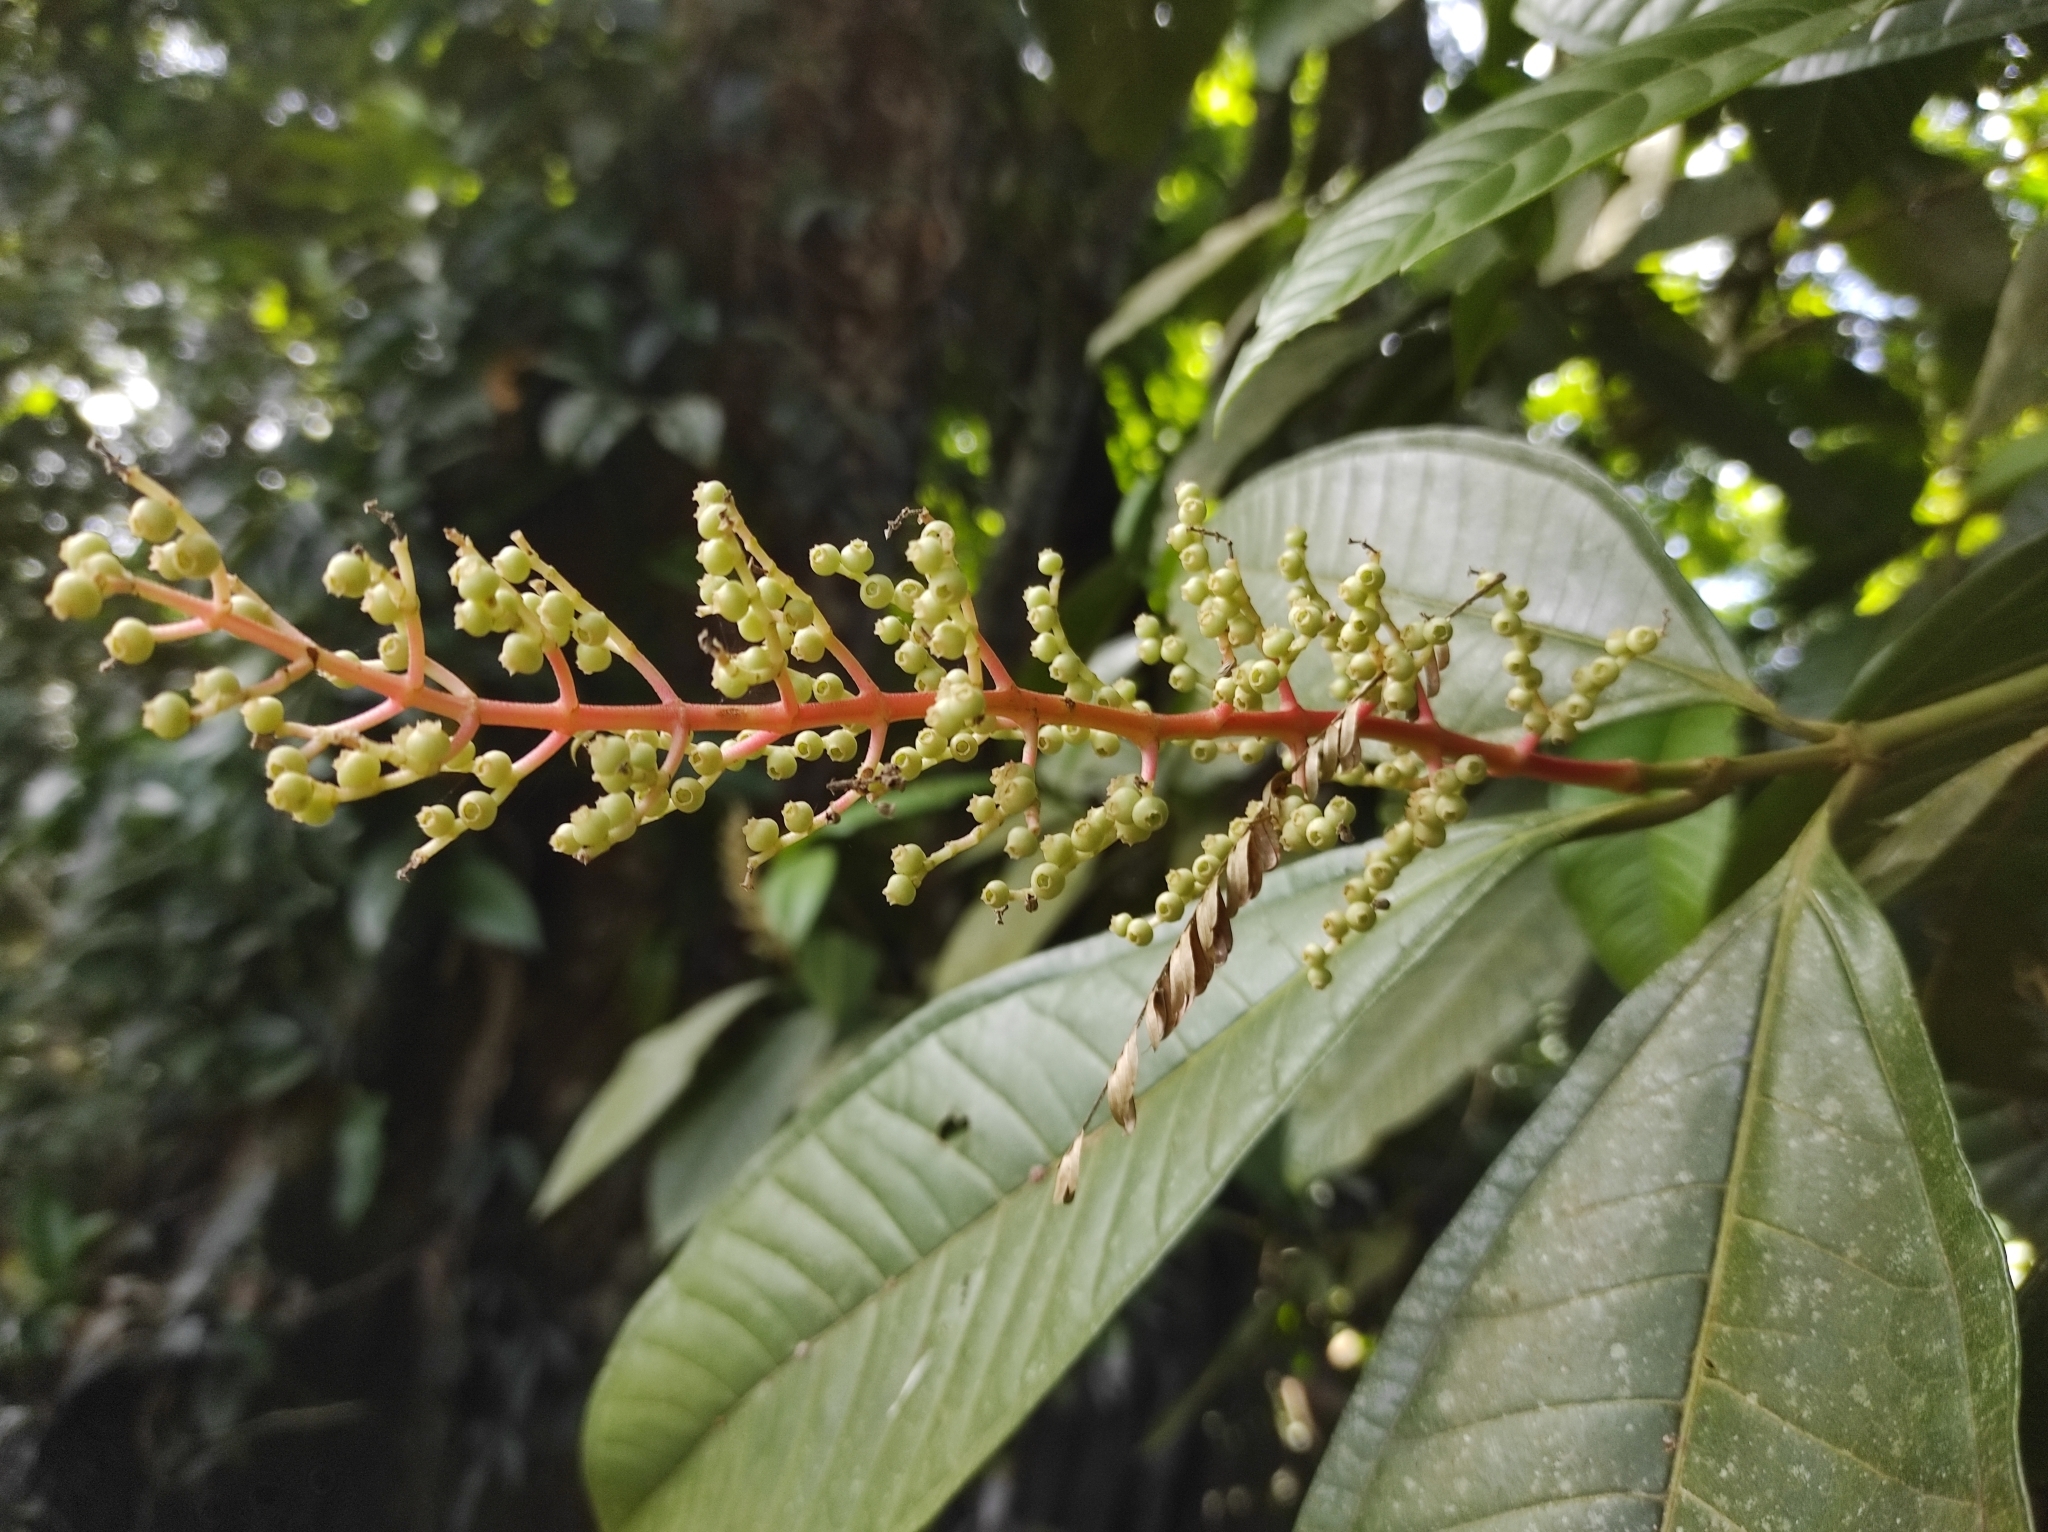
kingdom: Plantae
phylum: Tracheophyta
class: Magnoliopsida
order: Myrtales
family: Melastomataceae
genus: Miconia
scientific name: Miconia trinervia
